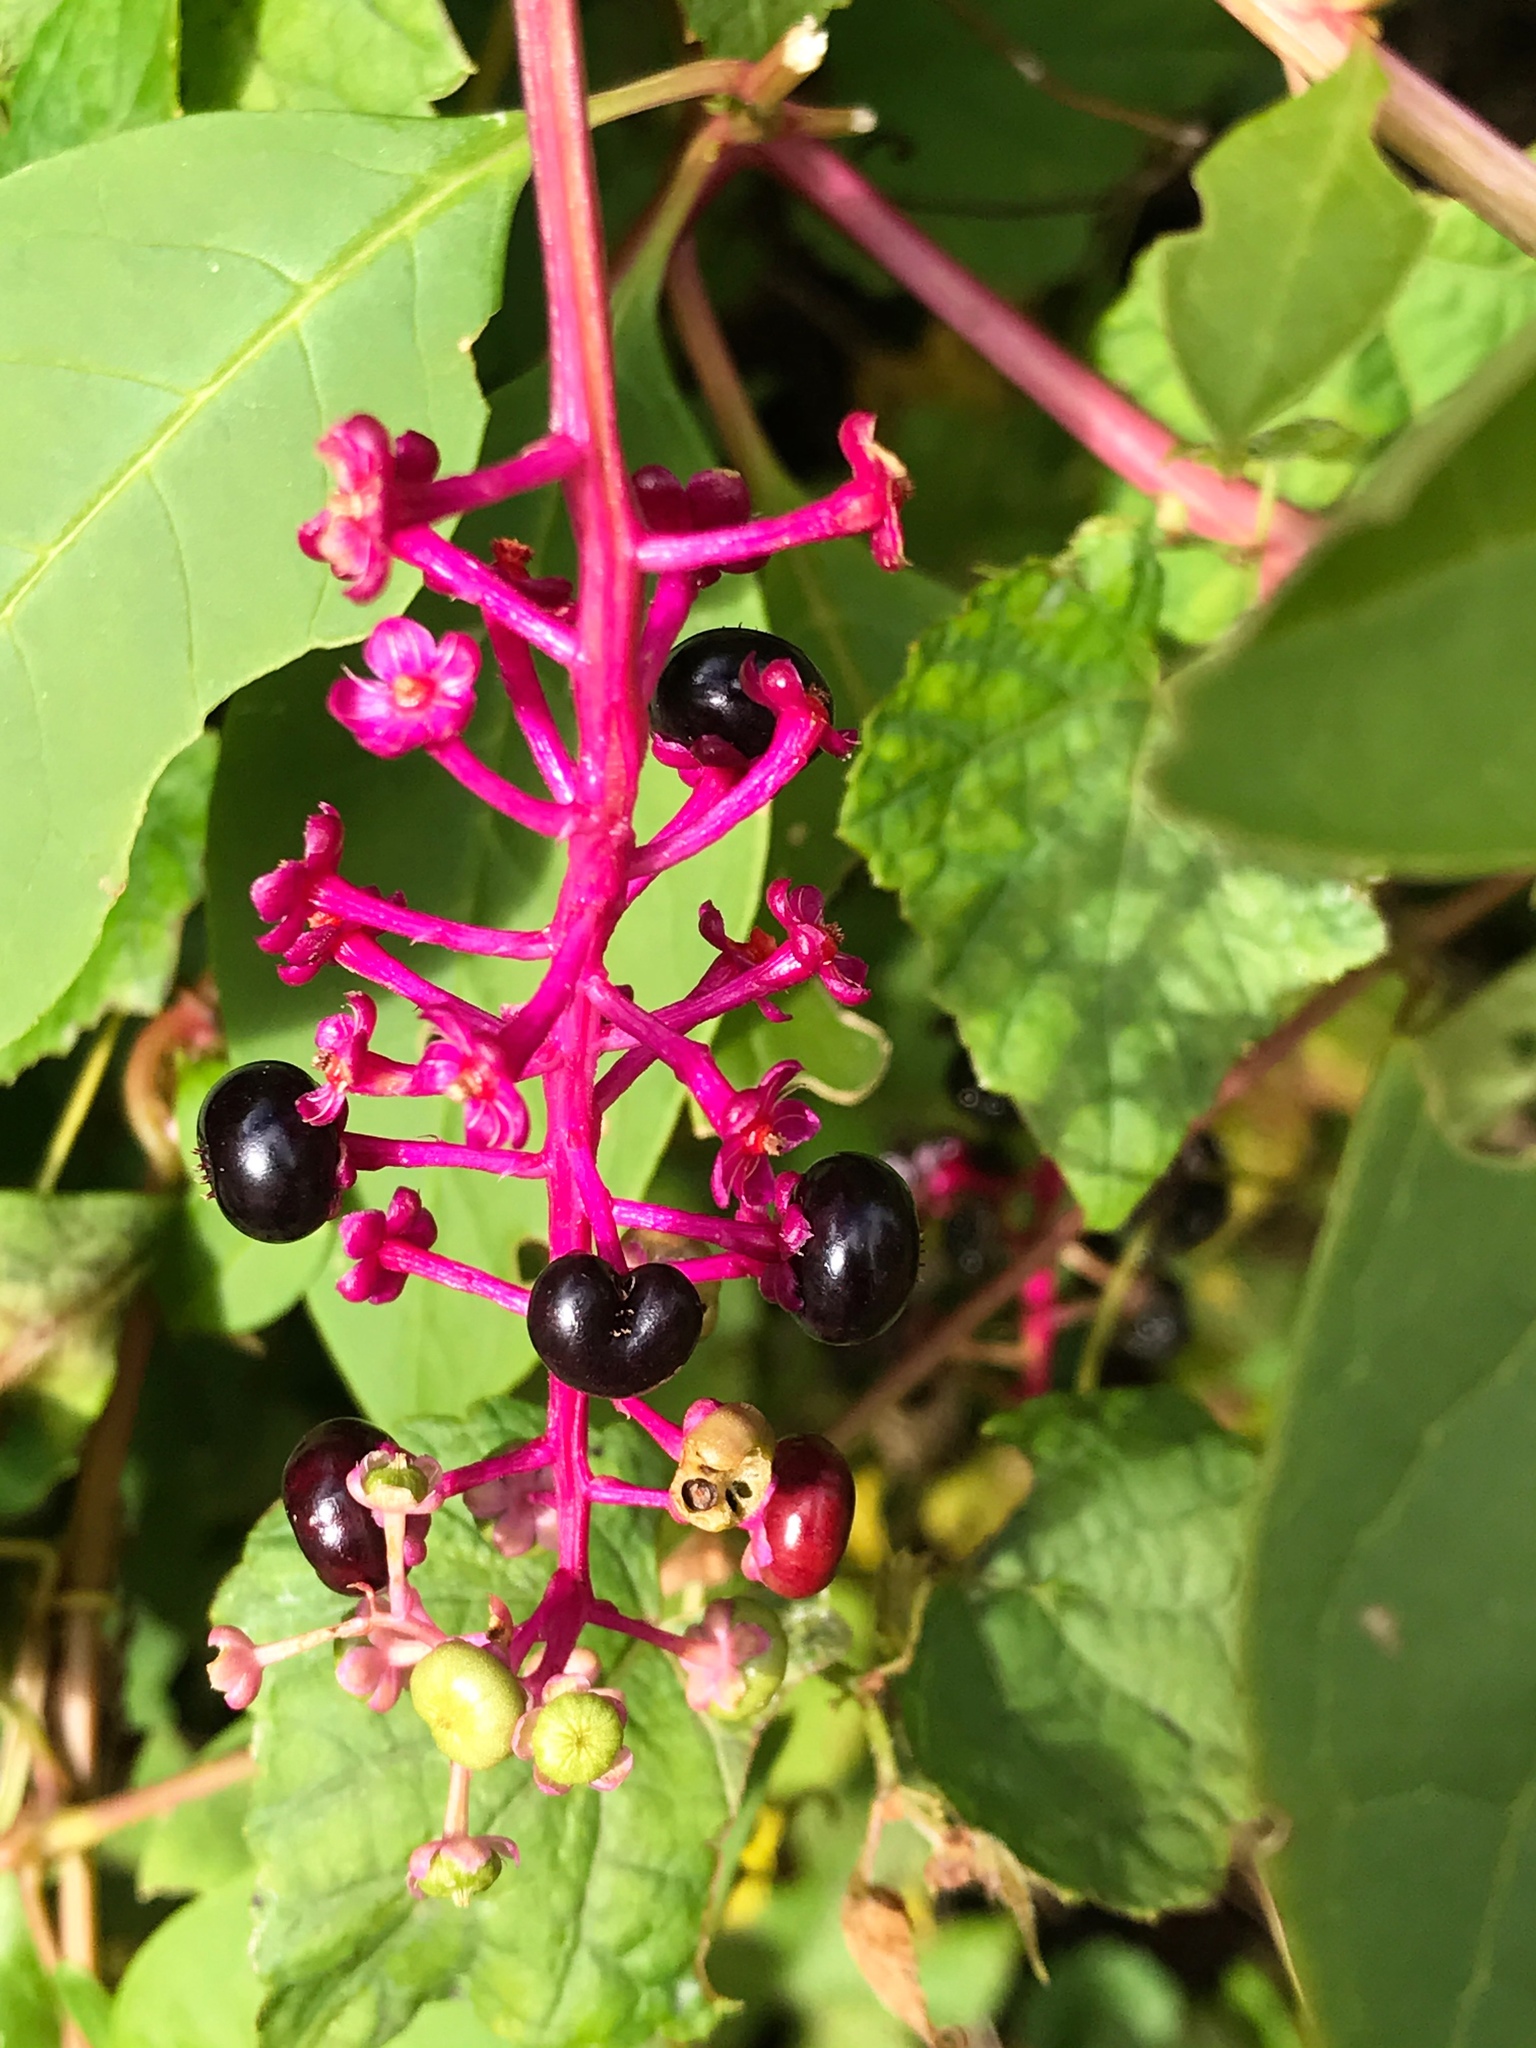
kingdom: Plantae
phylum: Tracheophyta
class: Magnoliopsida
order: Caryophyllales
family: Phytolaccaceae
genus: Phytolacca
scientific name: Phytolacca americana
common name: American pokeweed
